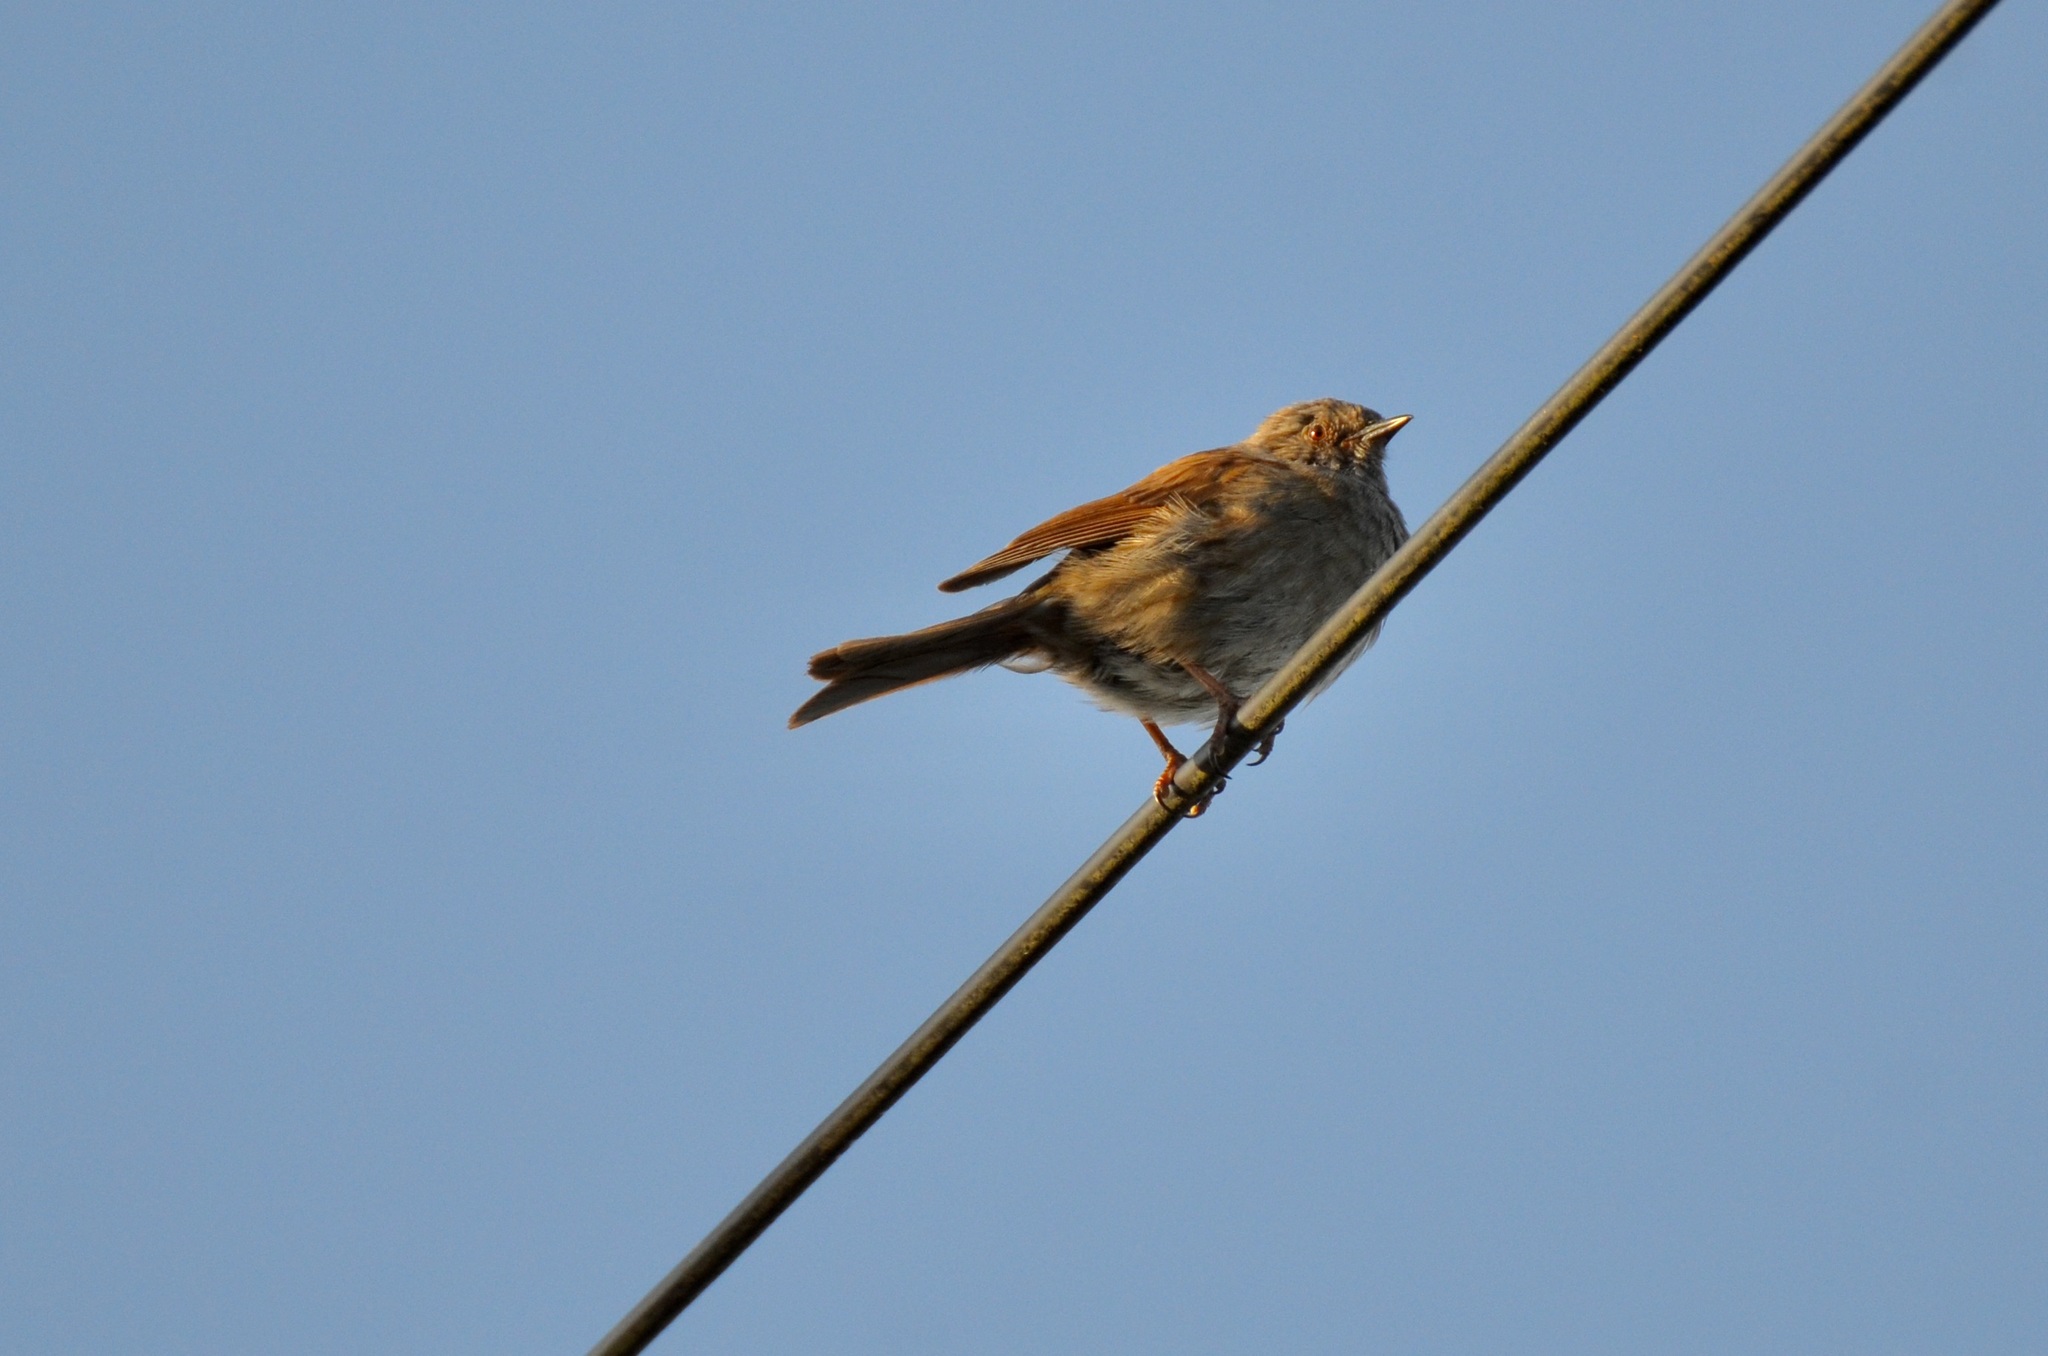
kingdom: Animalia
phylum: Chordata
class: Aves
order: Passeriformes
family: Prunellidae
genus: Prunella
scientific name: Prunella modularis
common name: Dunnock
